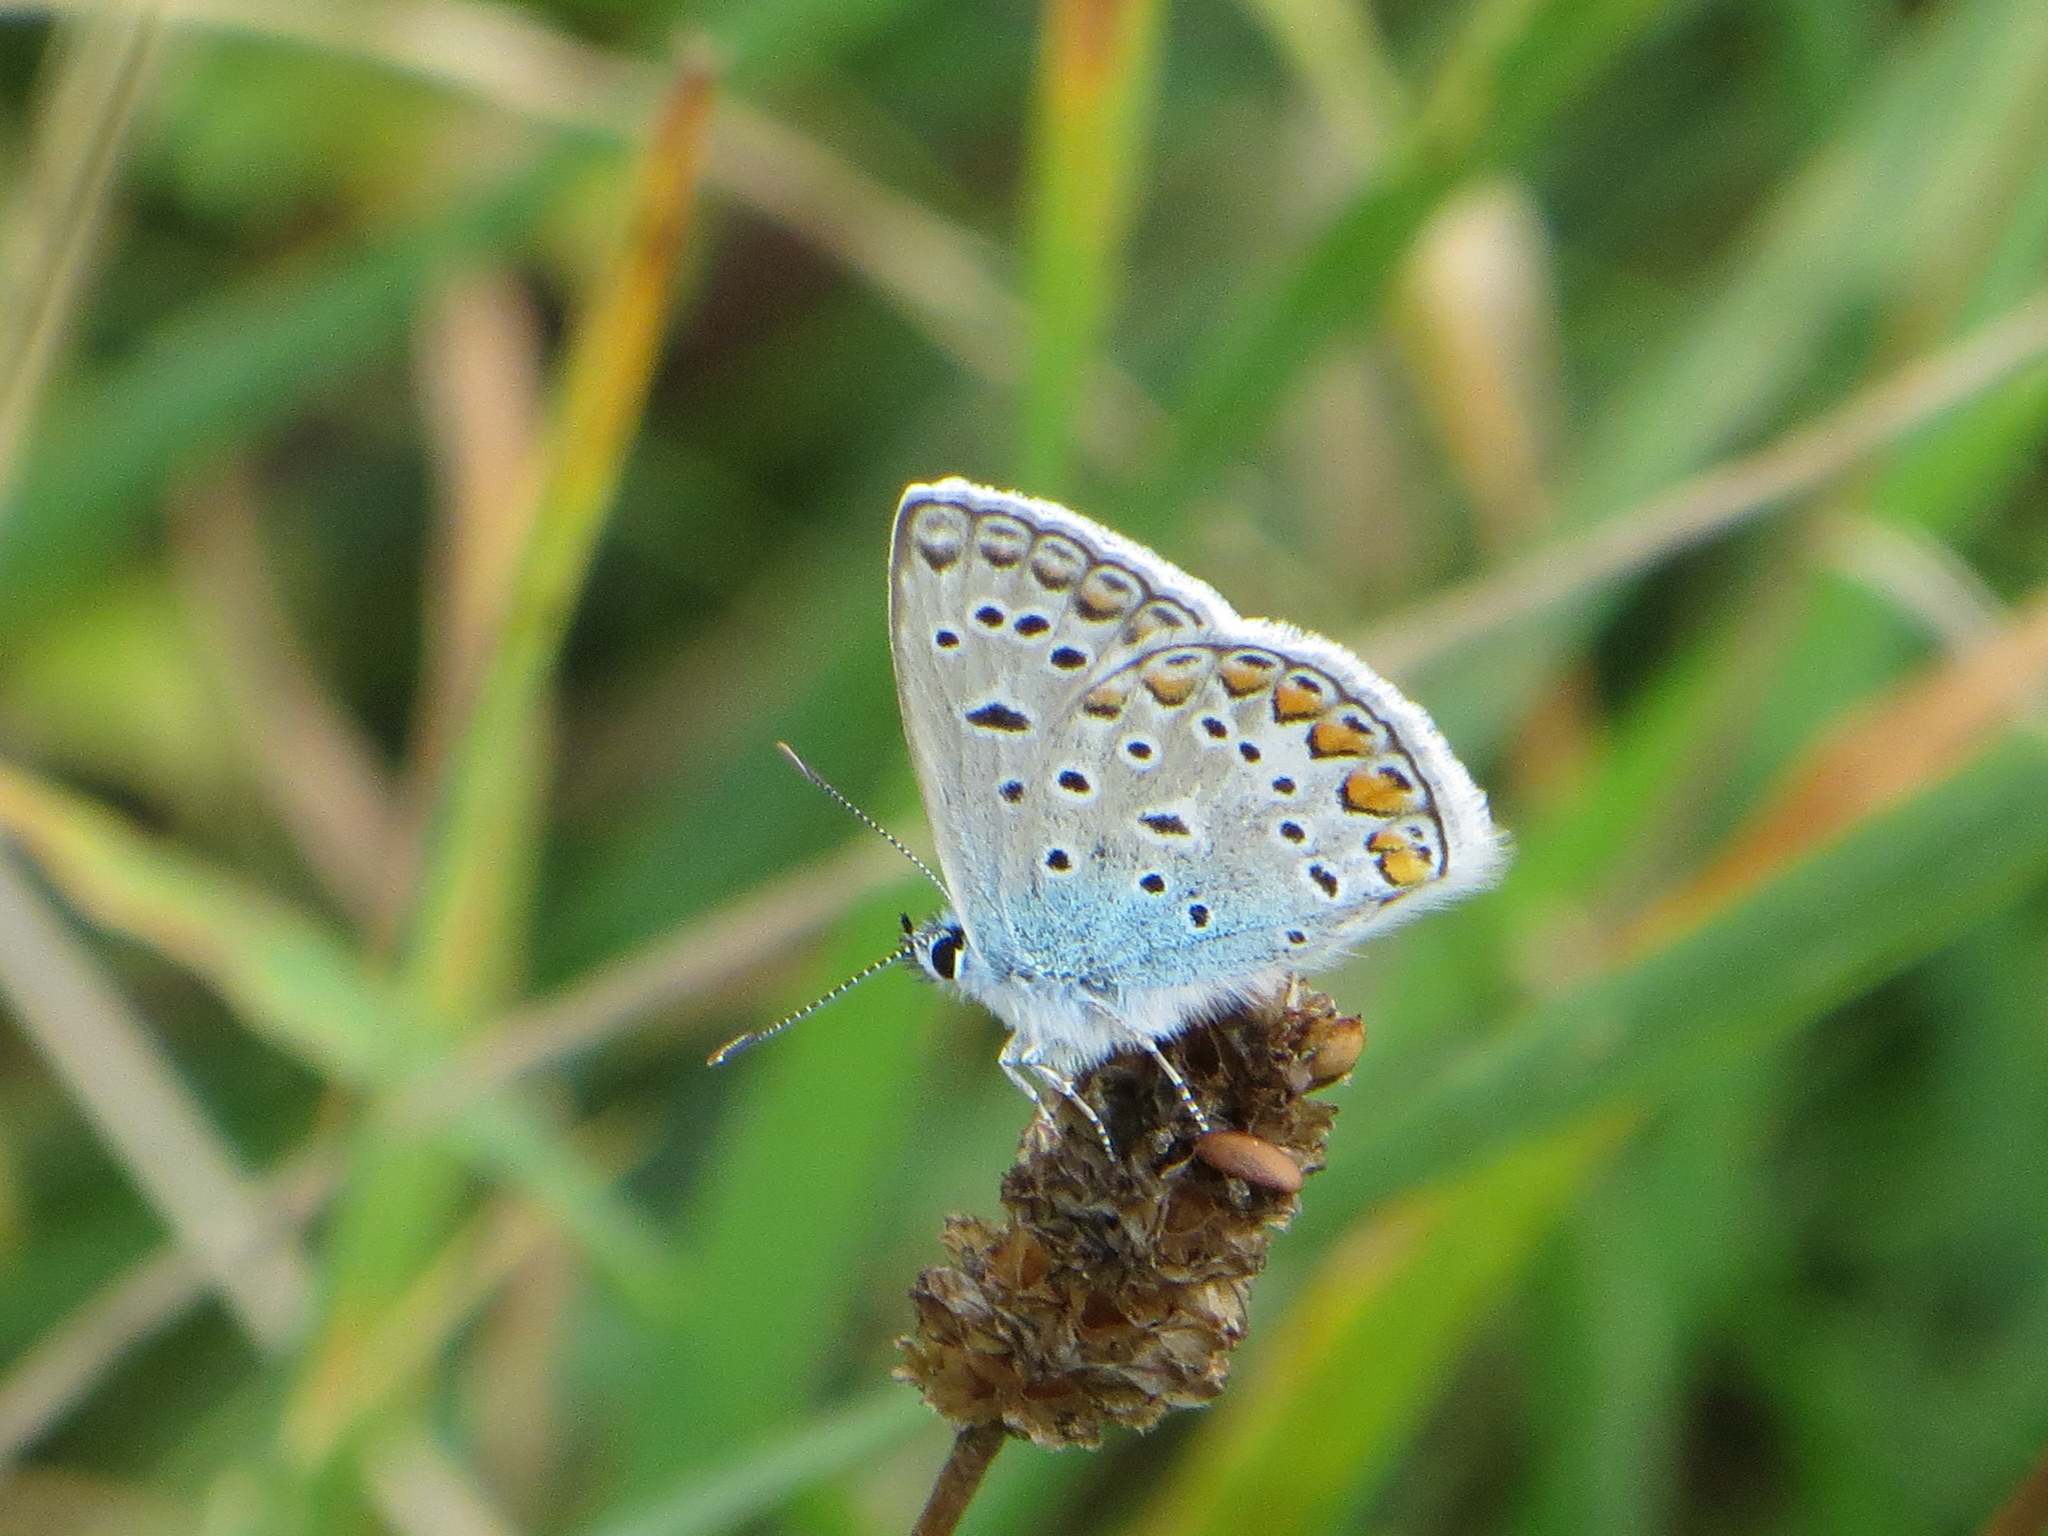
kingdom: Animalia
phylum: Arthropoda
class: Insecta
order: Lepidoptera
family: Lycaenidae
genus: Polyommatus
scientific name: Polyommatus icarus
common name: Common blue
